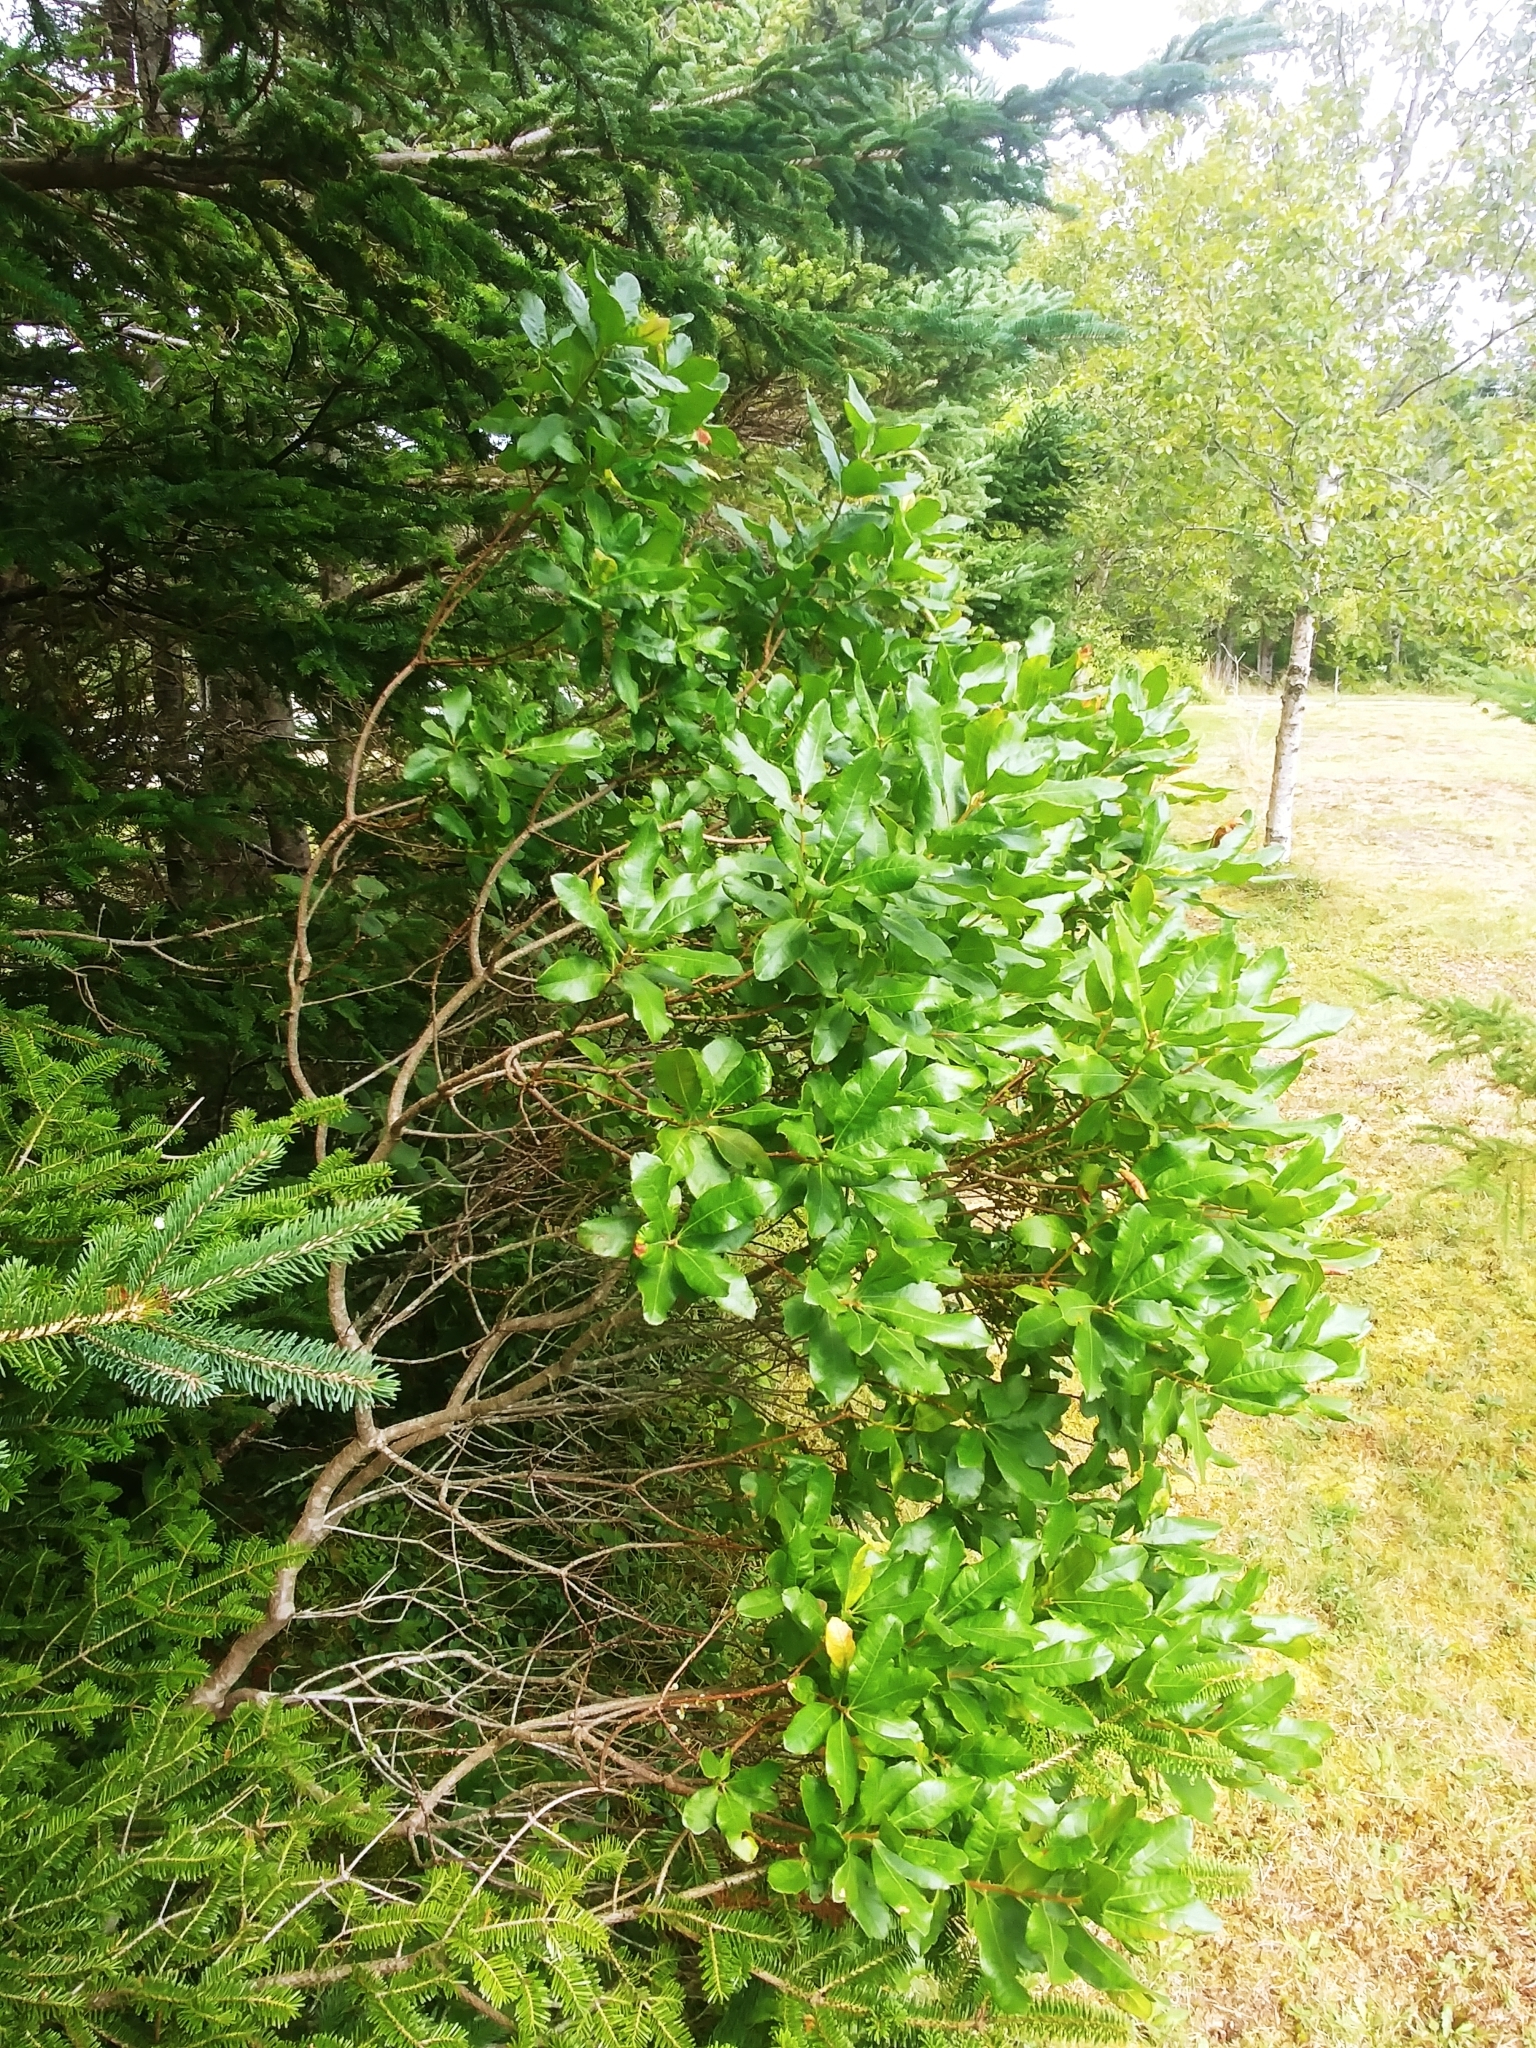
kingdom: Plantae
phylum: Tracheophyta
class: Magnoliopsida
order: Fagales
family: Myricaceae
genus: Morella
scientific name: Morella pensylvanica
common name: Northern bayberry
